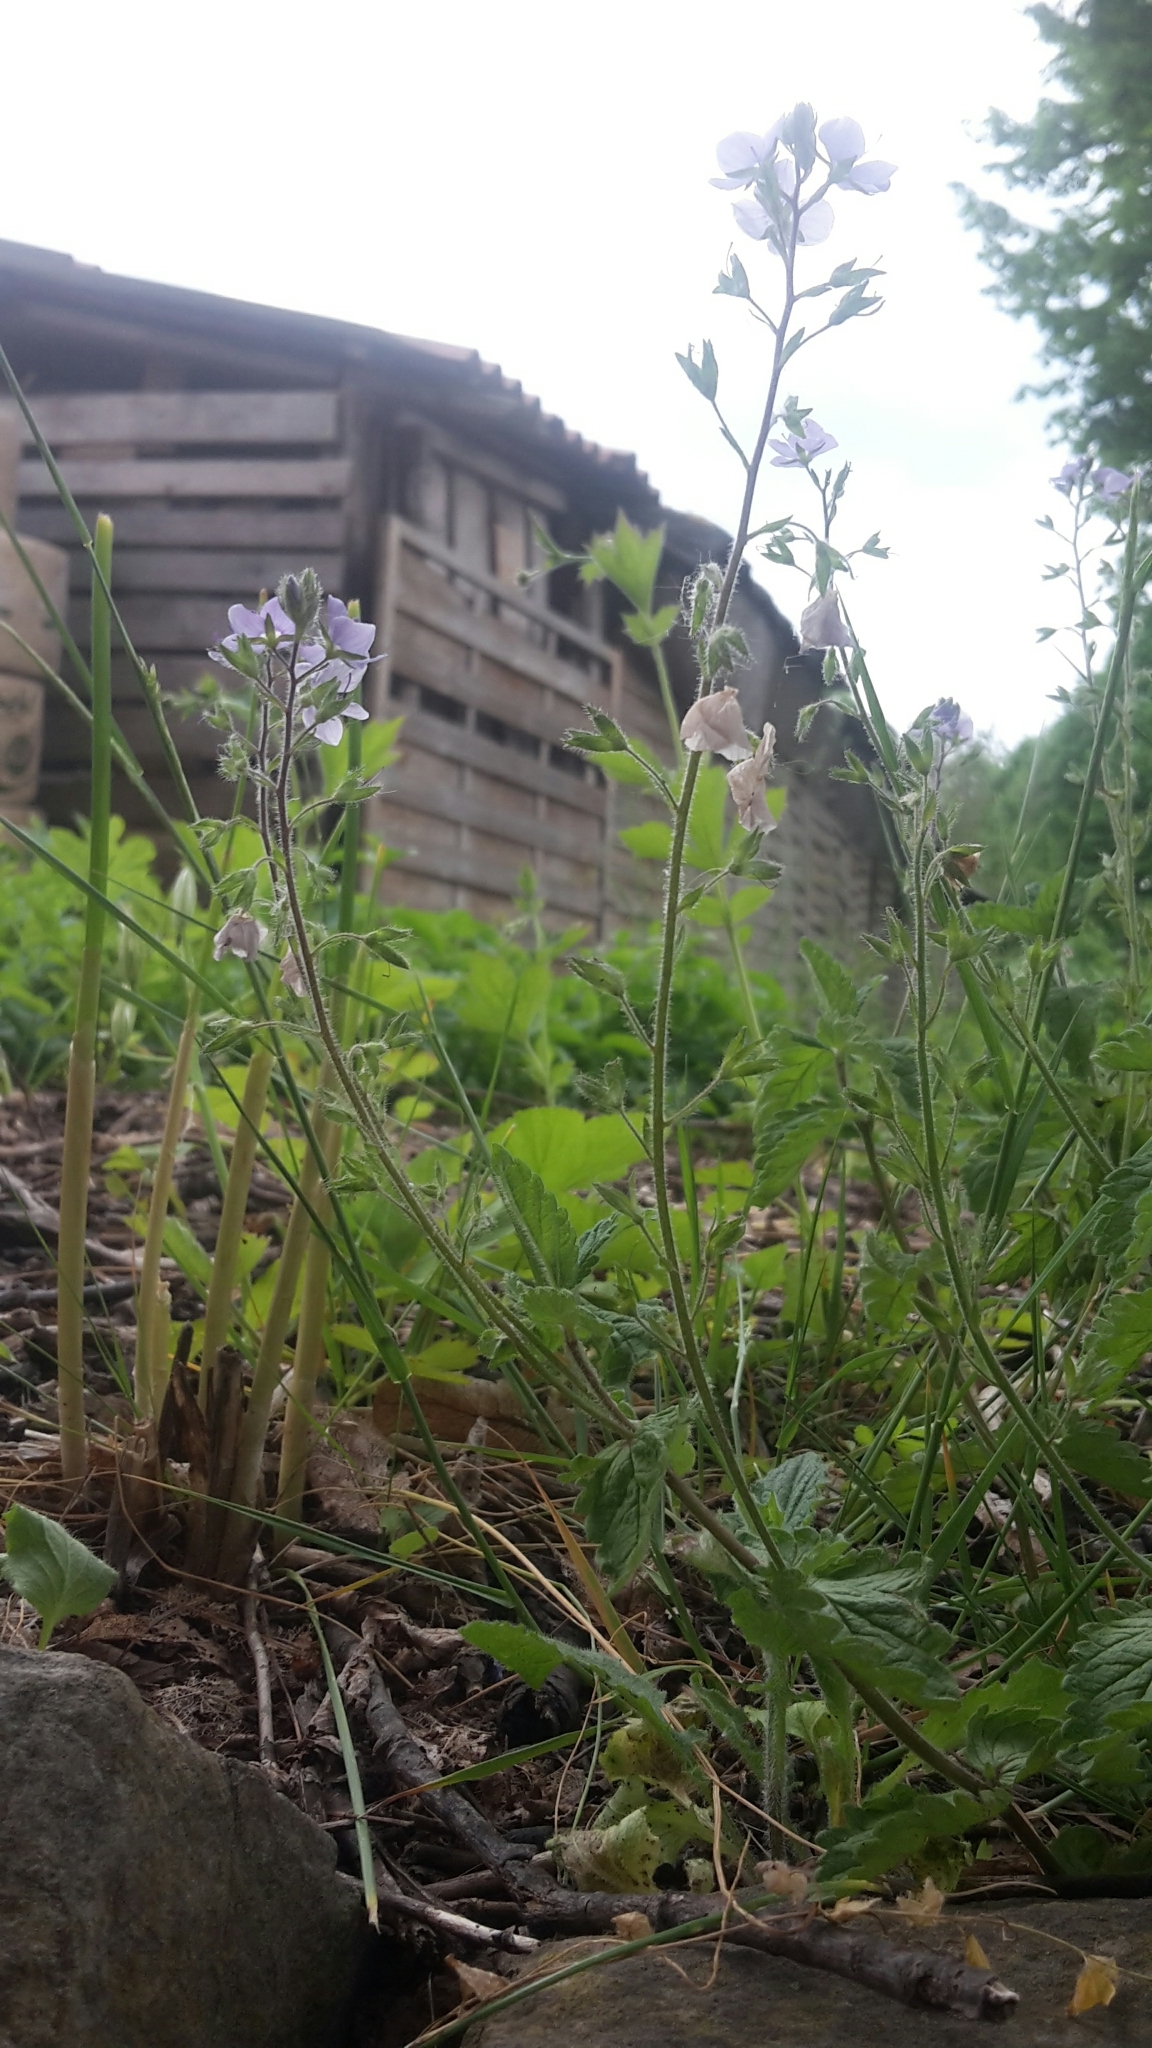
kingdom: Plantae
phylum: Tracheophyta
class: Magnoliopsida
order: Lamiales
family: Plantaginaceae
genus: Veronica
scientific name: Veronica chamaedrys
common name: Germander speedwell
